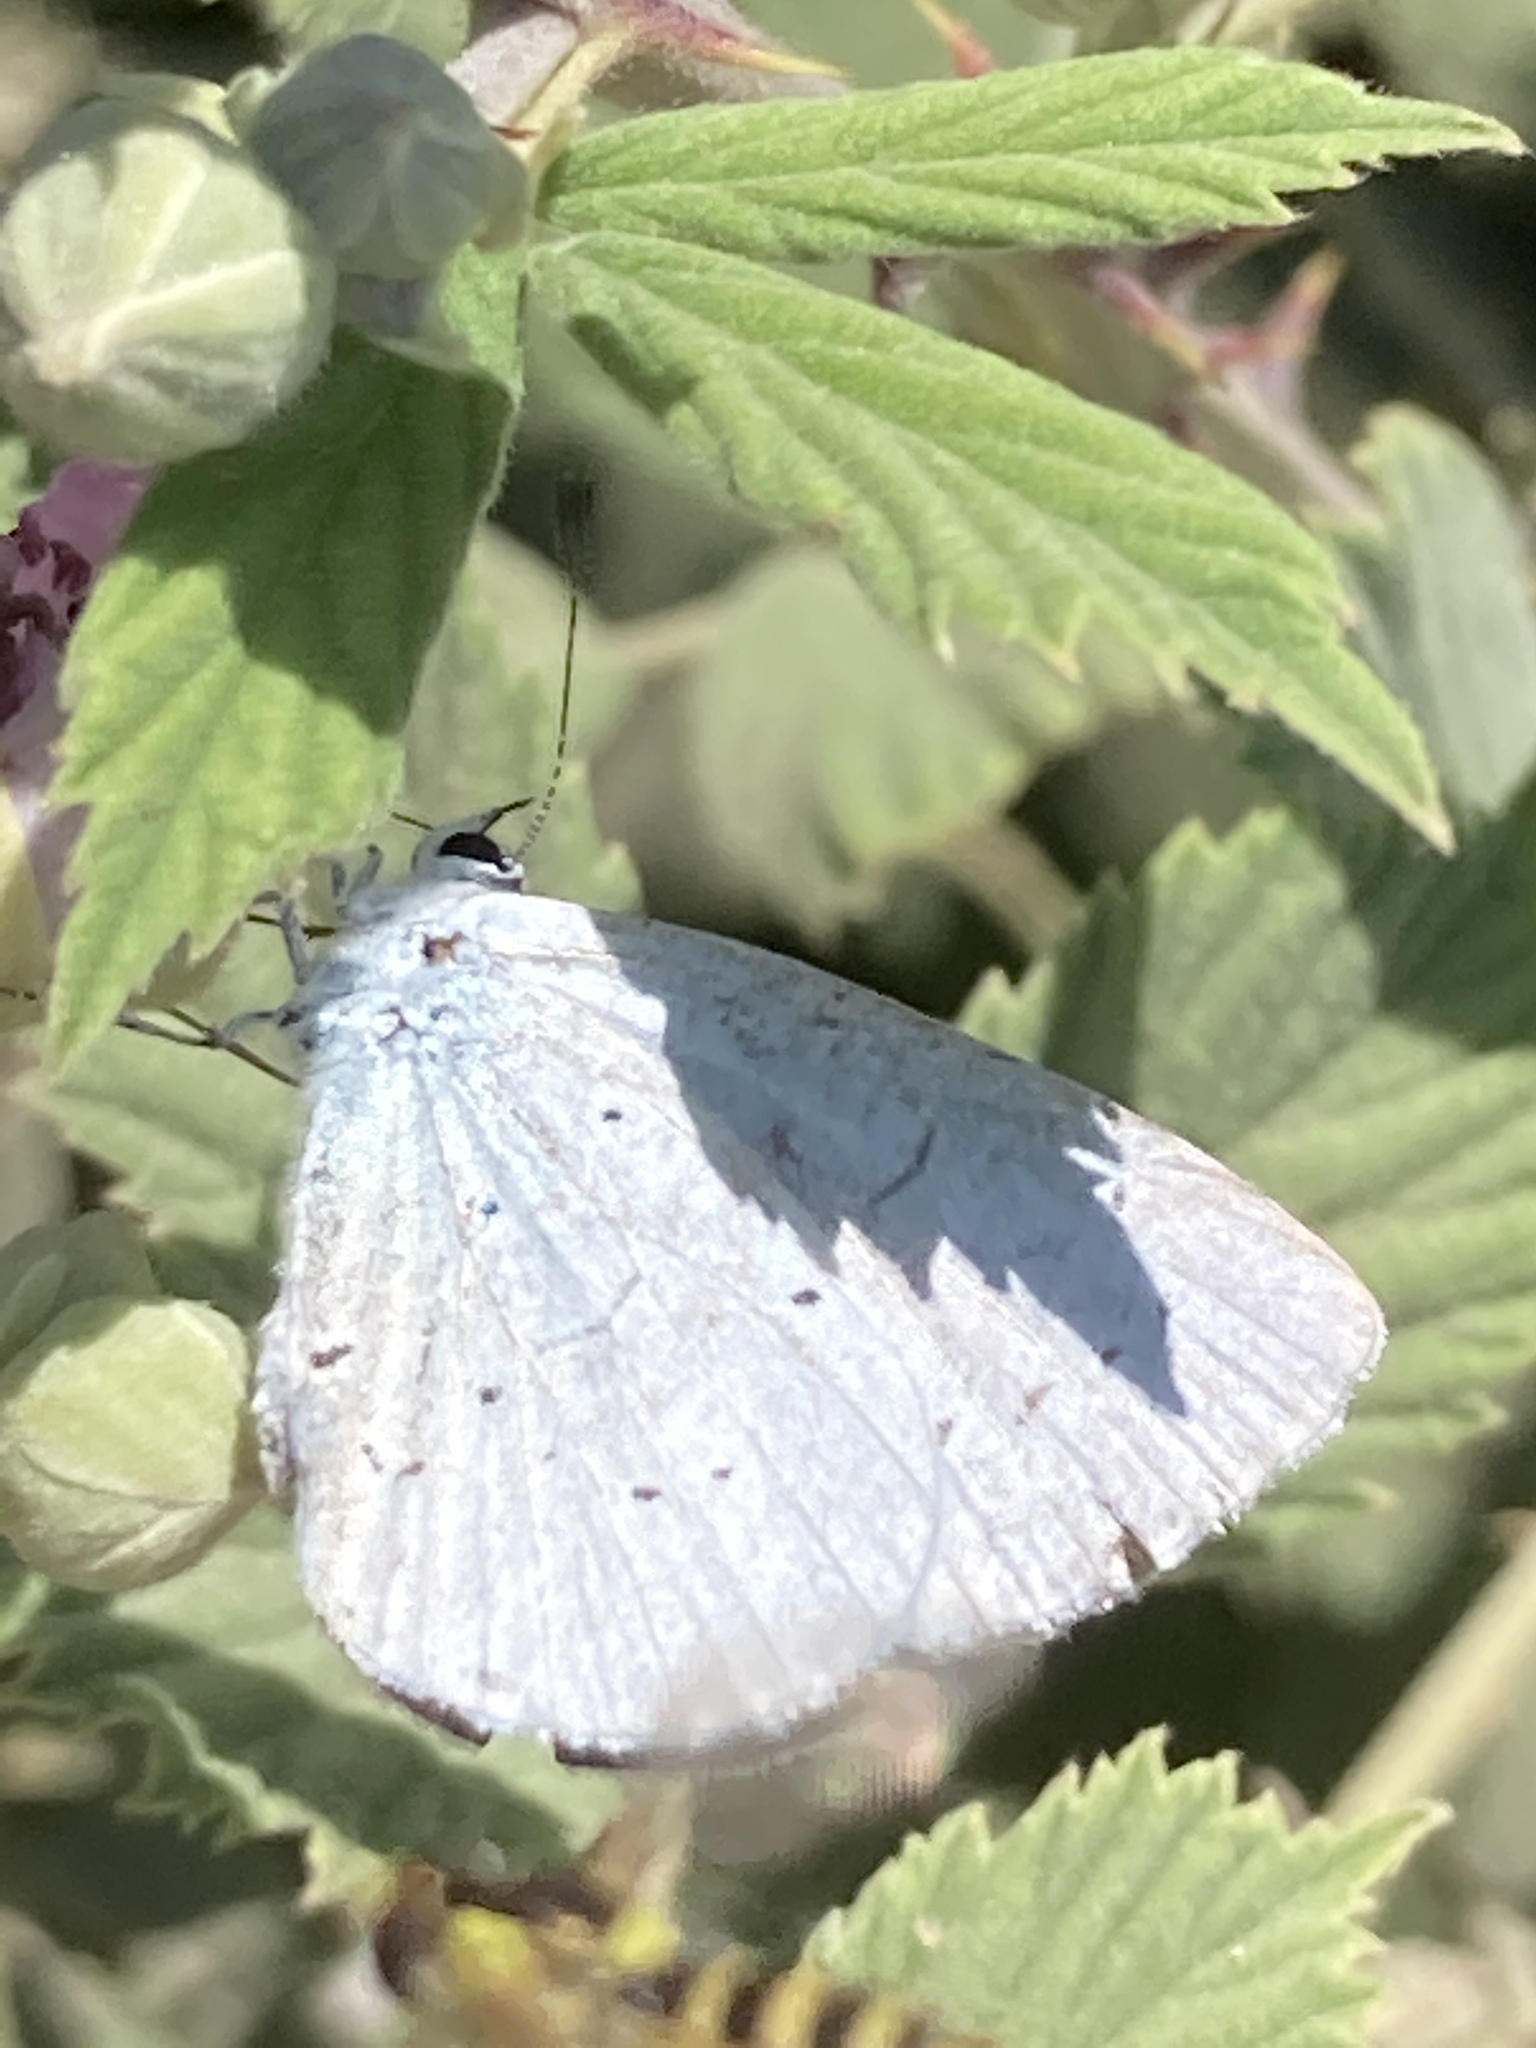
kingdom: Animalia
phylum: Arthropoda
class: Insecta
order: Lepidoptera
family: Lycaenidae
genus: Celastrina
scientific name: Celastrina argiolus
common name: Holly blue
